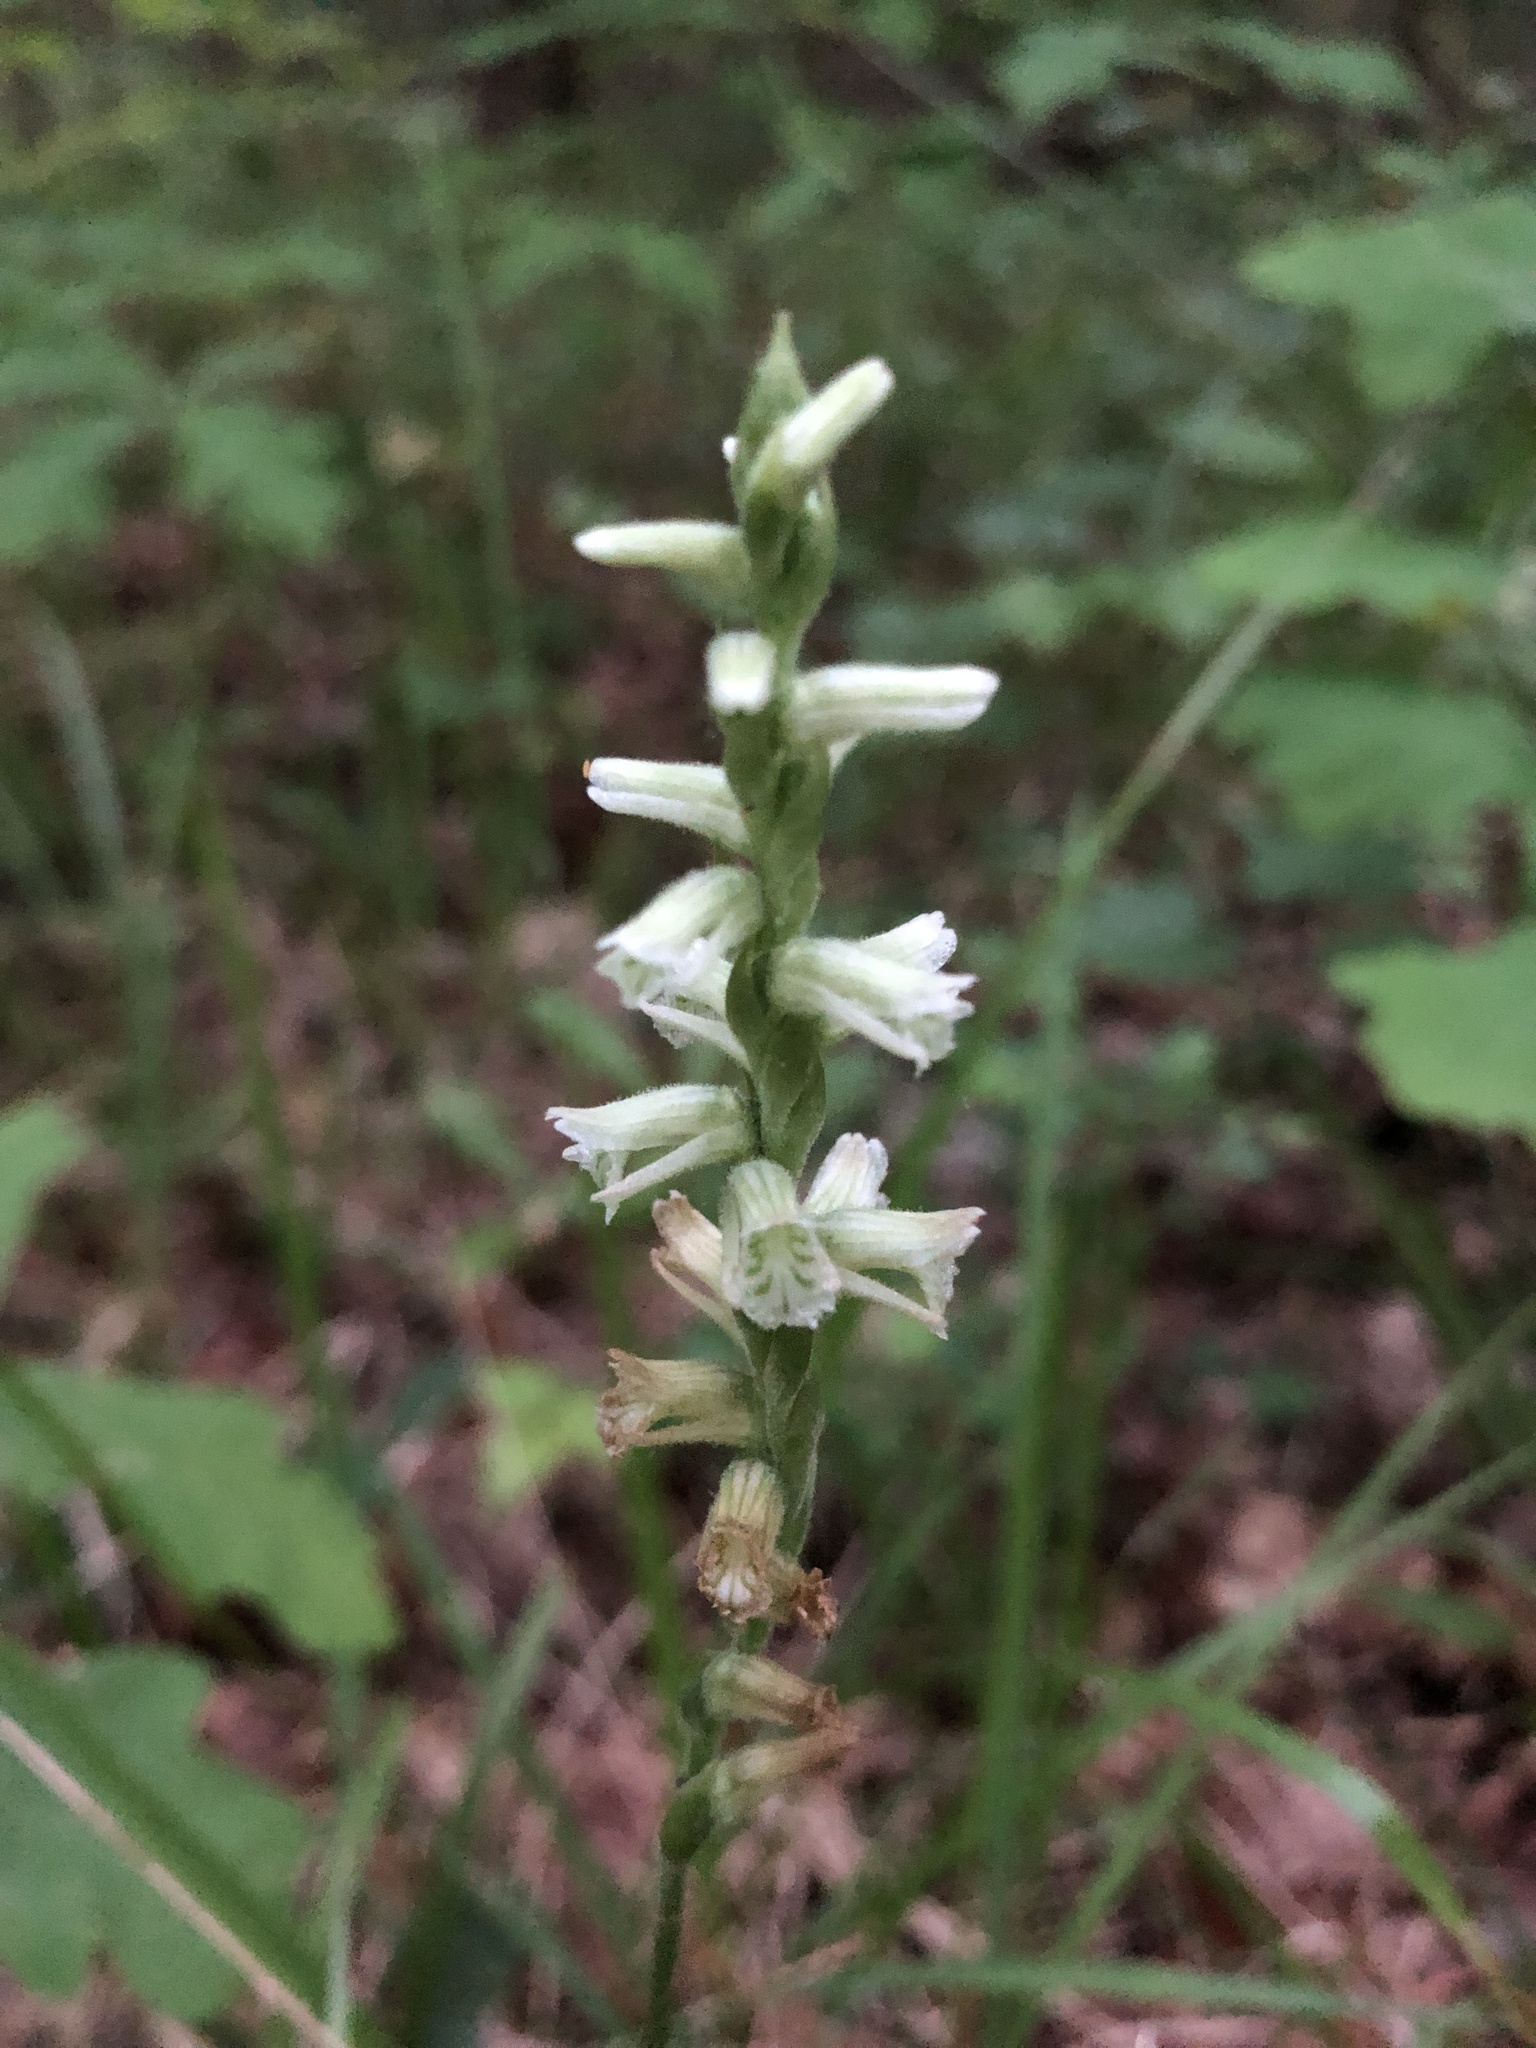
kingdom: Plantae
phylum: Tracheophyta
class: Liliopsida
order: Asparagales
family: Orchidaceae
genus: Spiranthes
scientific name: Spiranthes sylvatica
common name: Woodland lady's tresses
